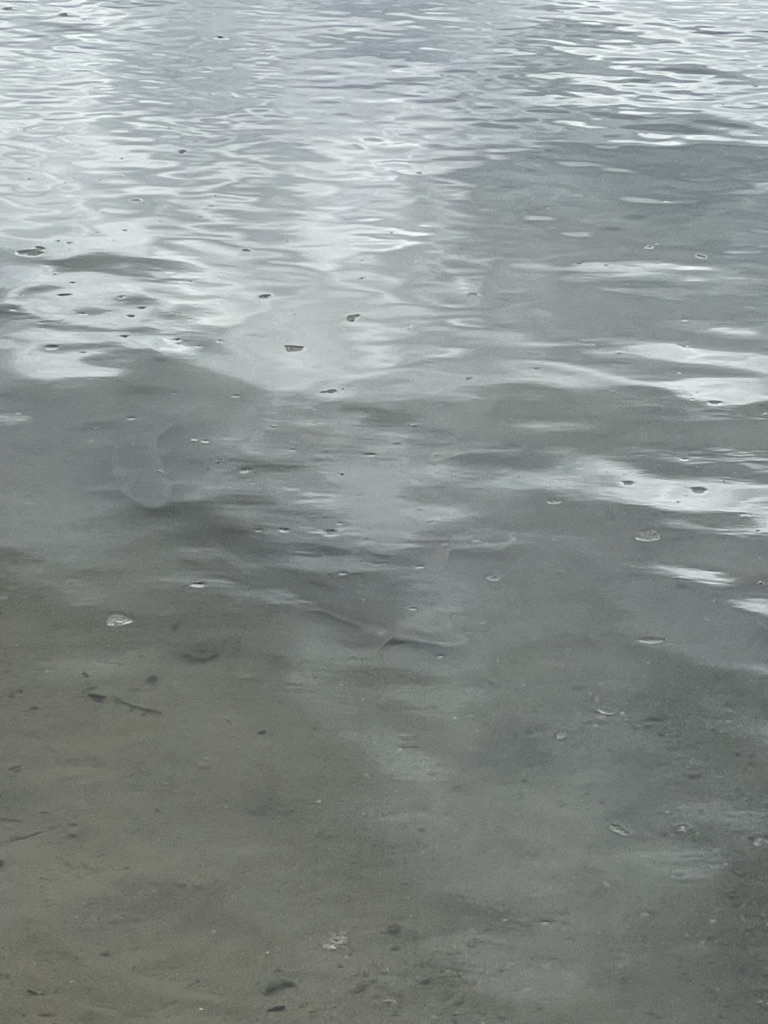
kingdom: Animalia
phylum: Chordata
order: Cypriniformes
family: Catostomidae
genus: Catostomus
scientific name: Catostomus catostomus
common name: Longnose sucker
